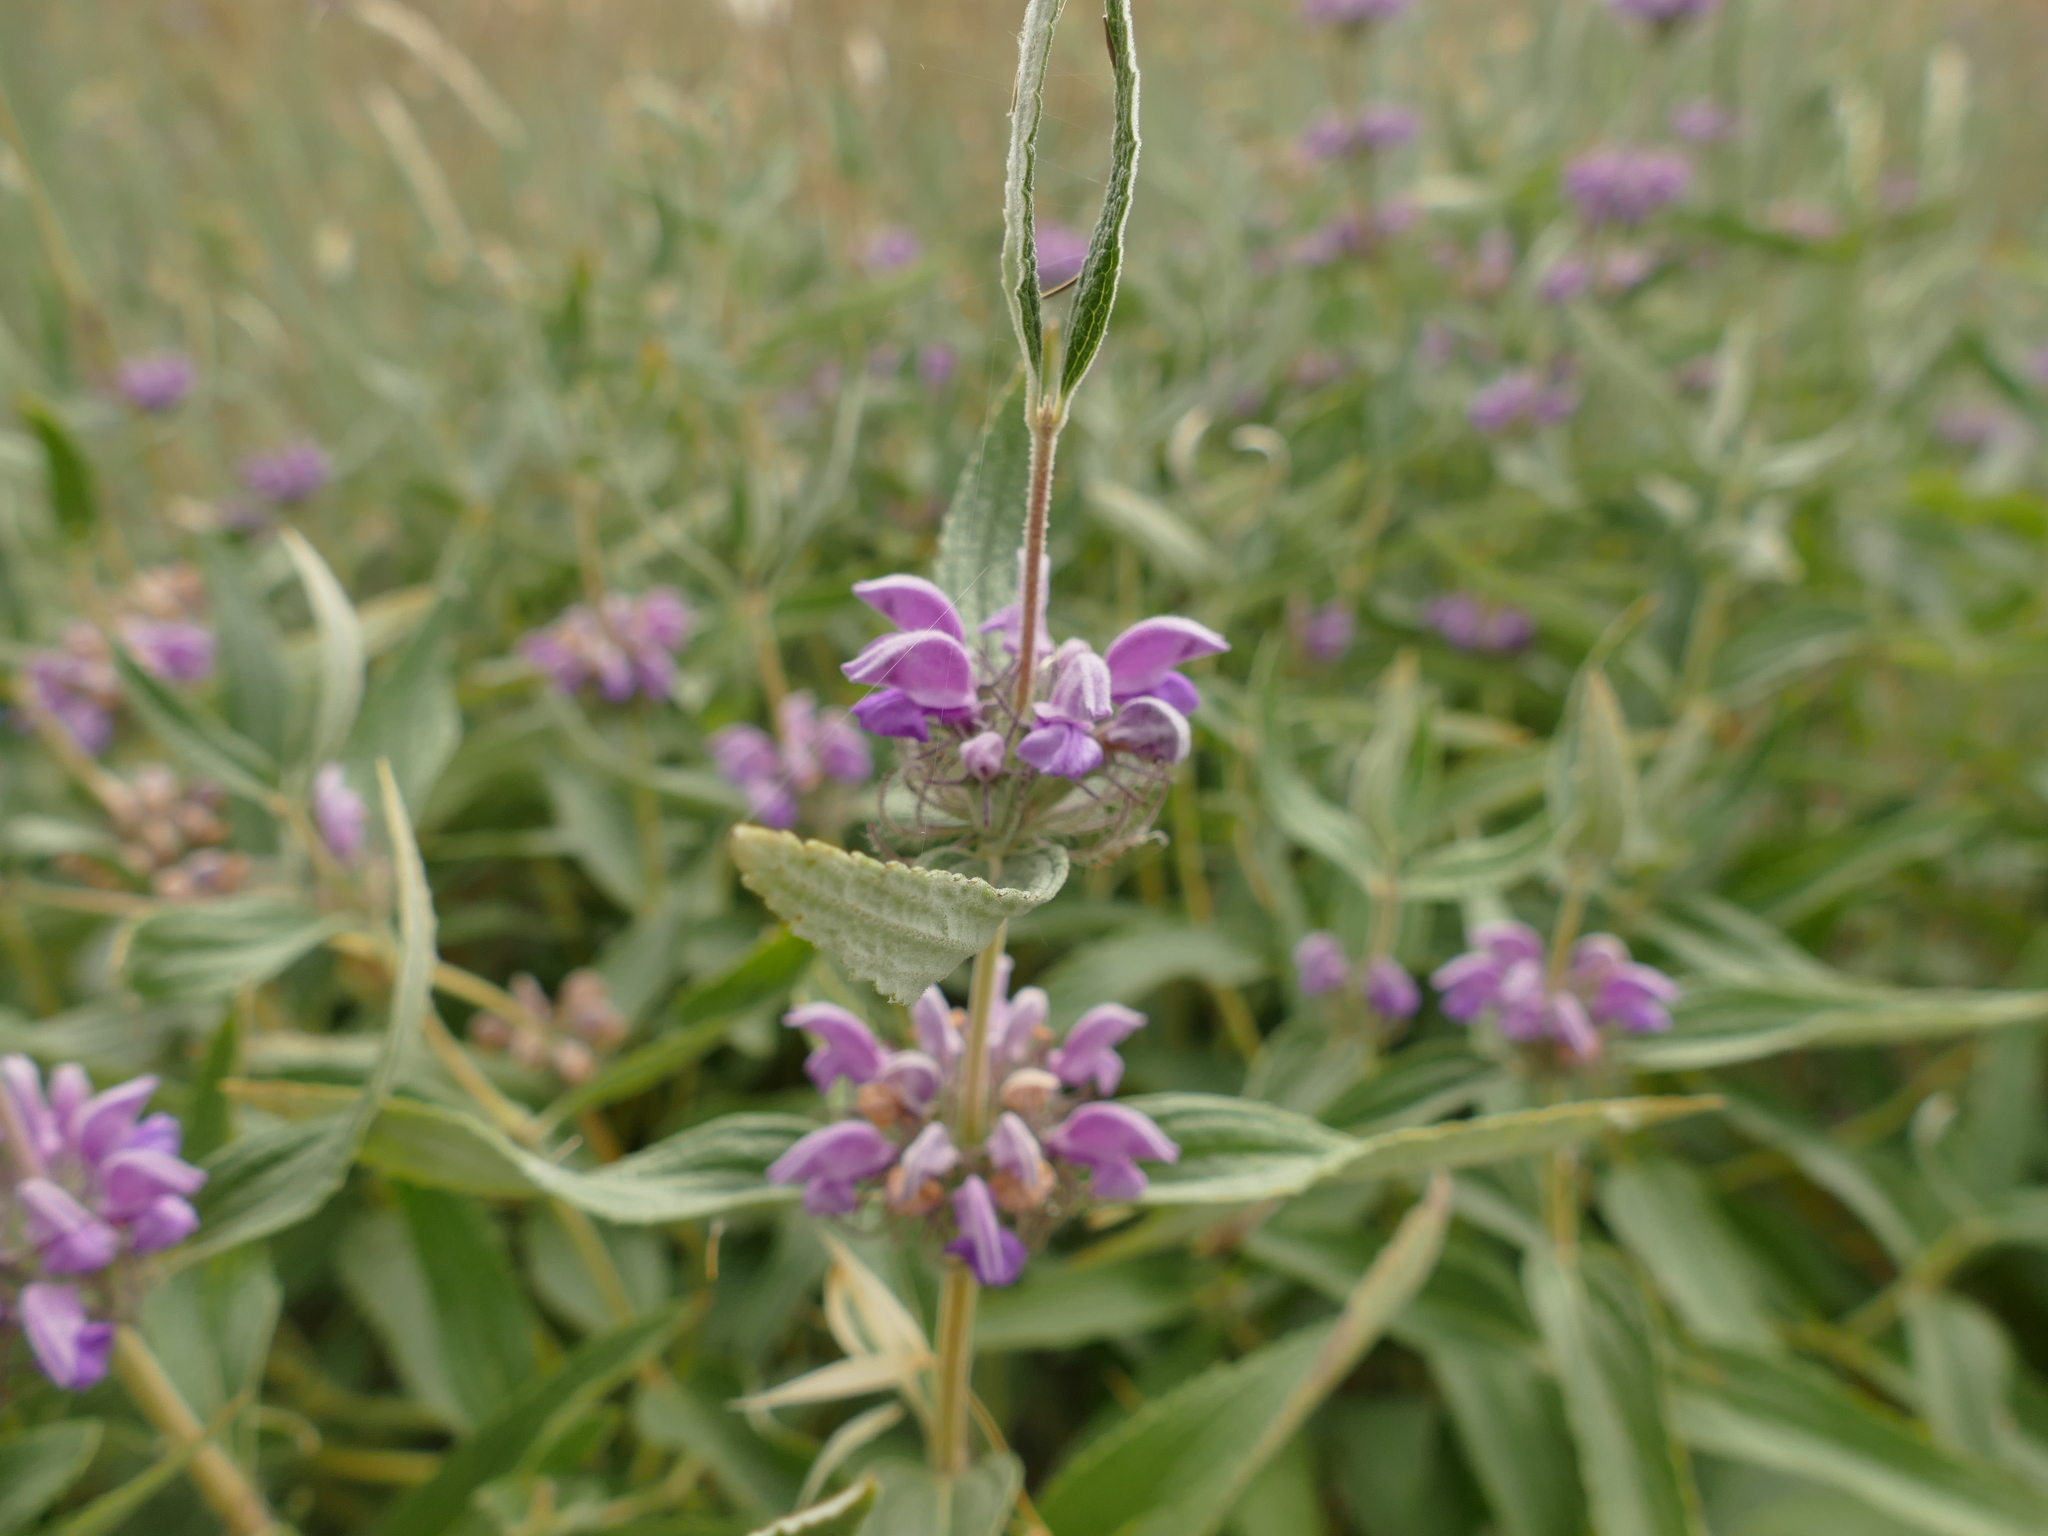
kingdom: Plantae
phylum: Tracheophyta
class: Magnoliopsida
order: Lamiales
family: Lamiaceae
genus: Phlomis
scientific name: Phlomis herba-venti
